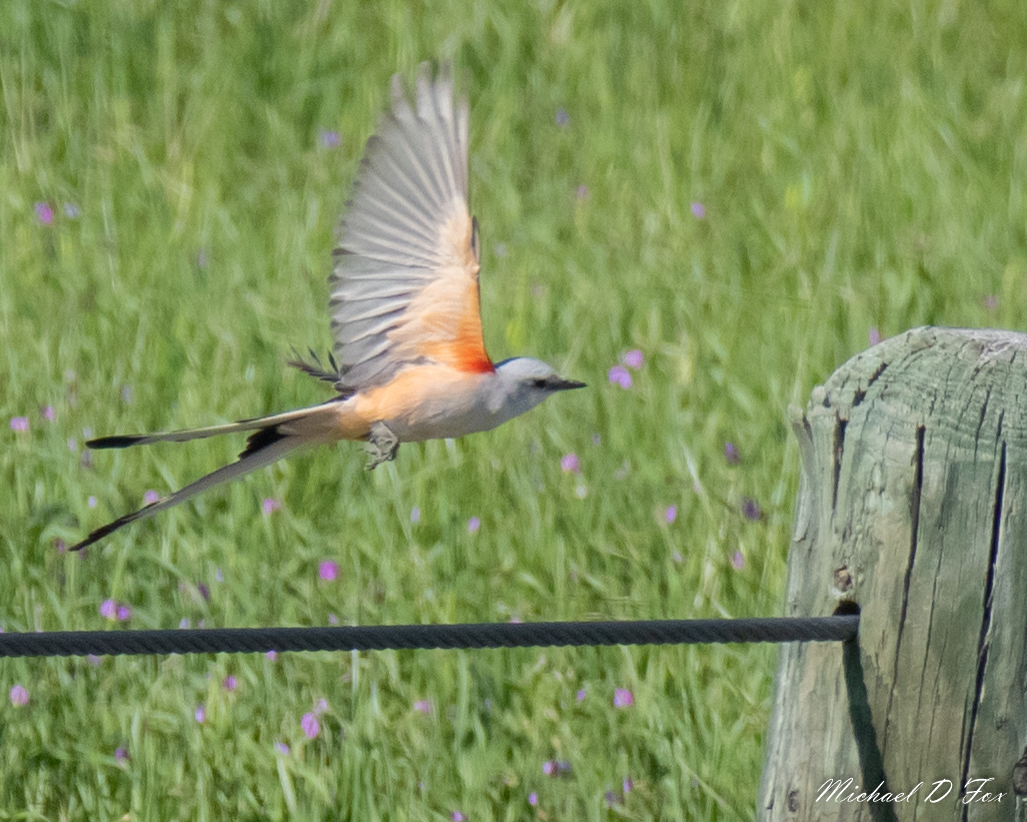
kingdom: Animalia
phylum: Chordata
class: Aves
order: Passeriformes
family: Tyrannidae
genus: Tyrannus
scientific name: Tyrannus forficatus
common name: Scissor-tailed flycatcher
